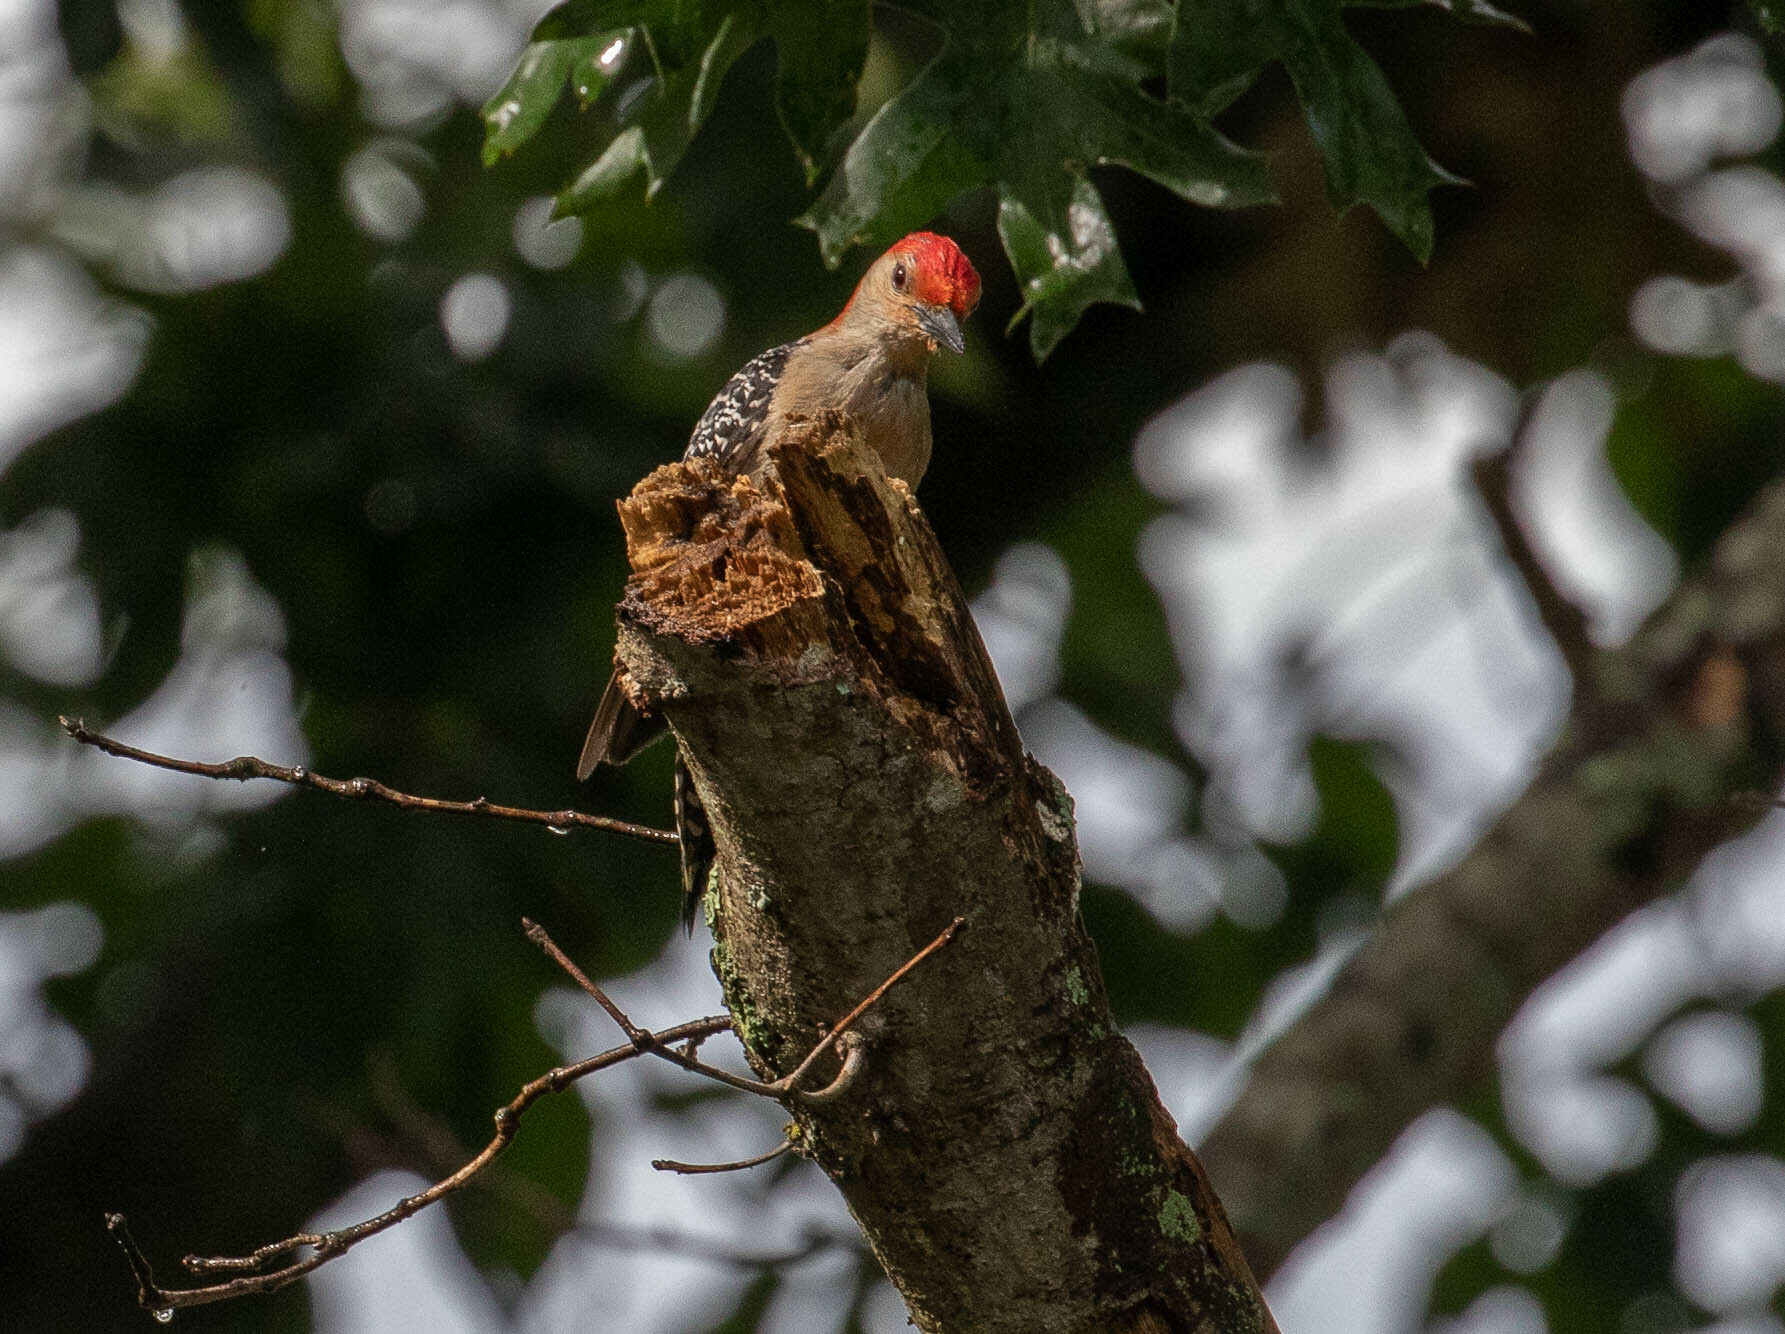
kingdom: Animalia
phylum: Chordata
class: Aves
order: Piciformes
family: Picidae
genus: Melanerpes
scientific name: Melanerpes carolinus
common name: Red-bellied woodpecker
